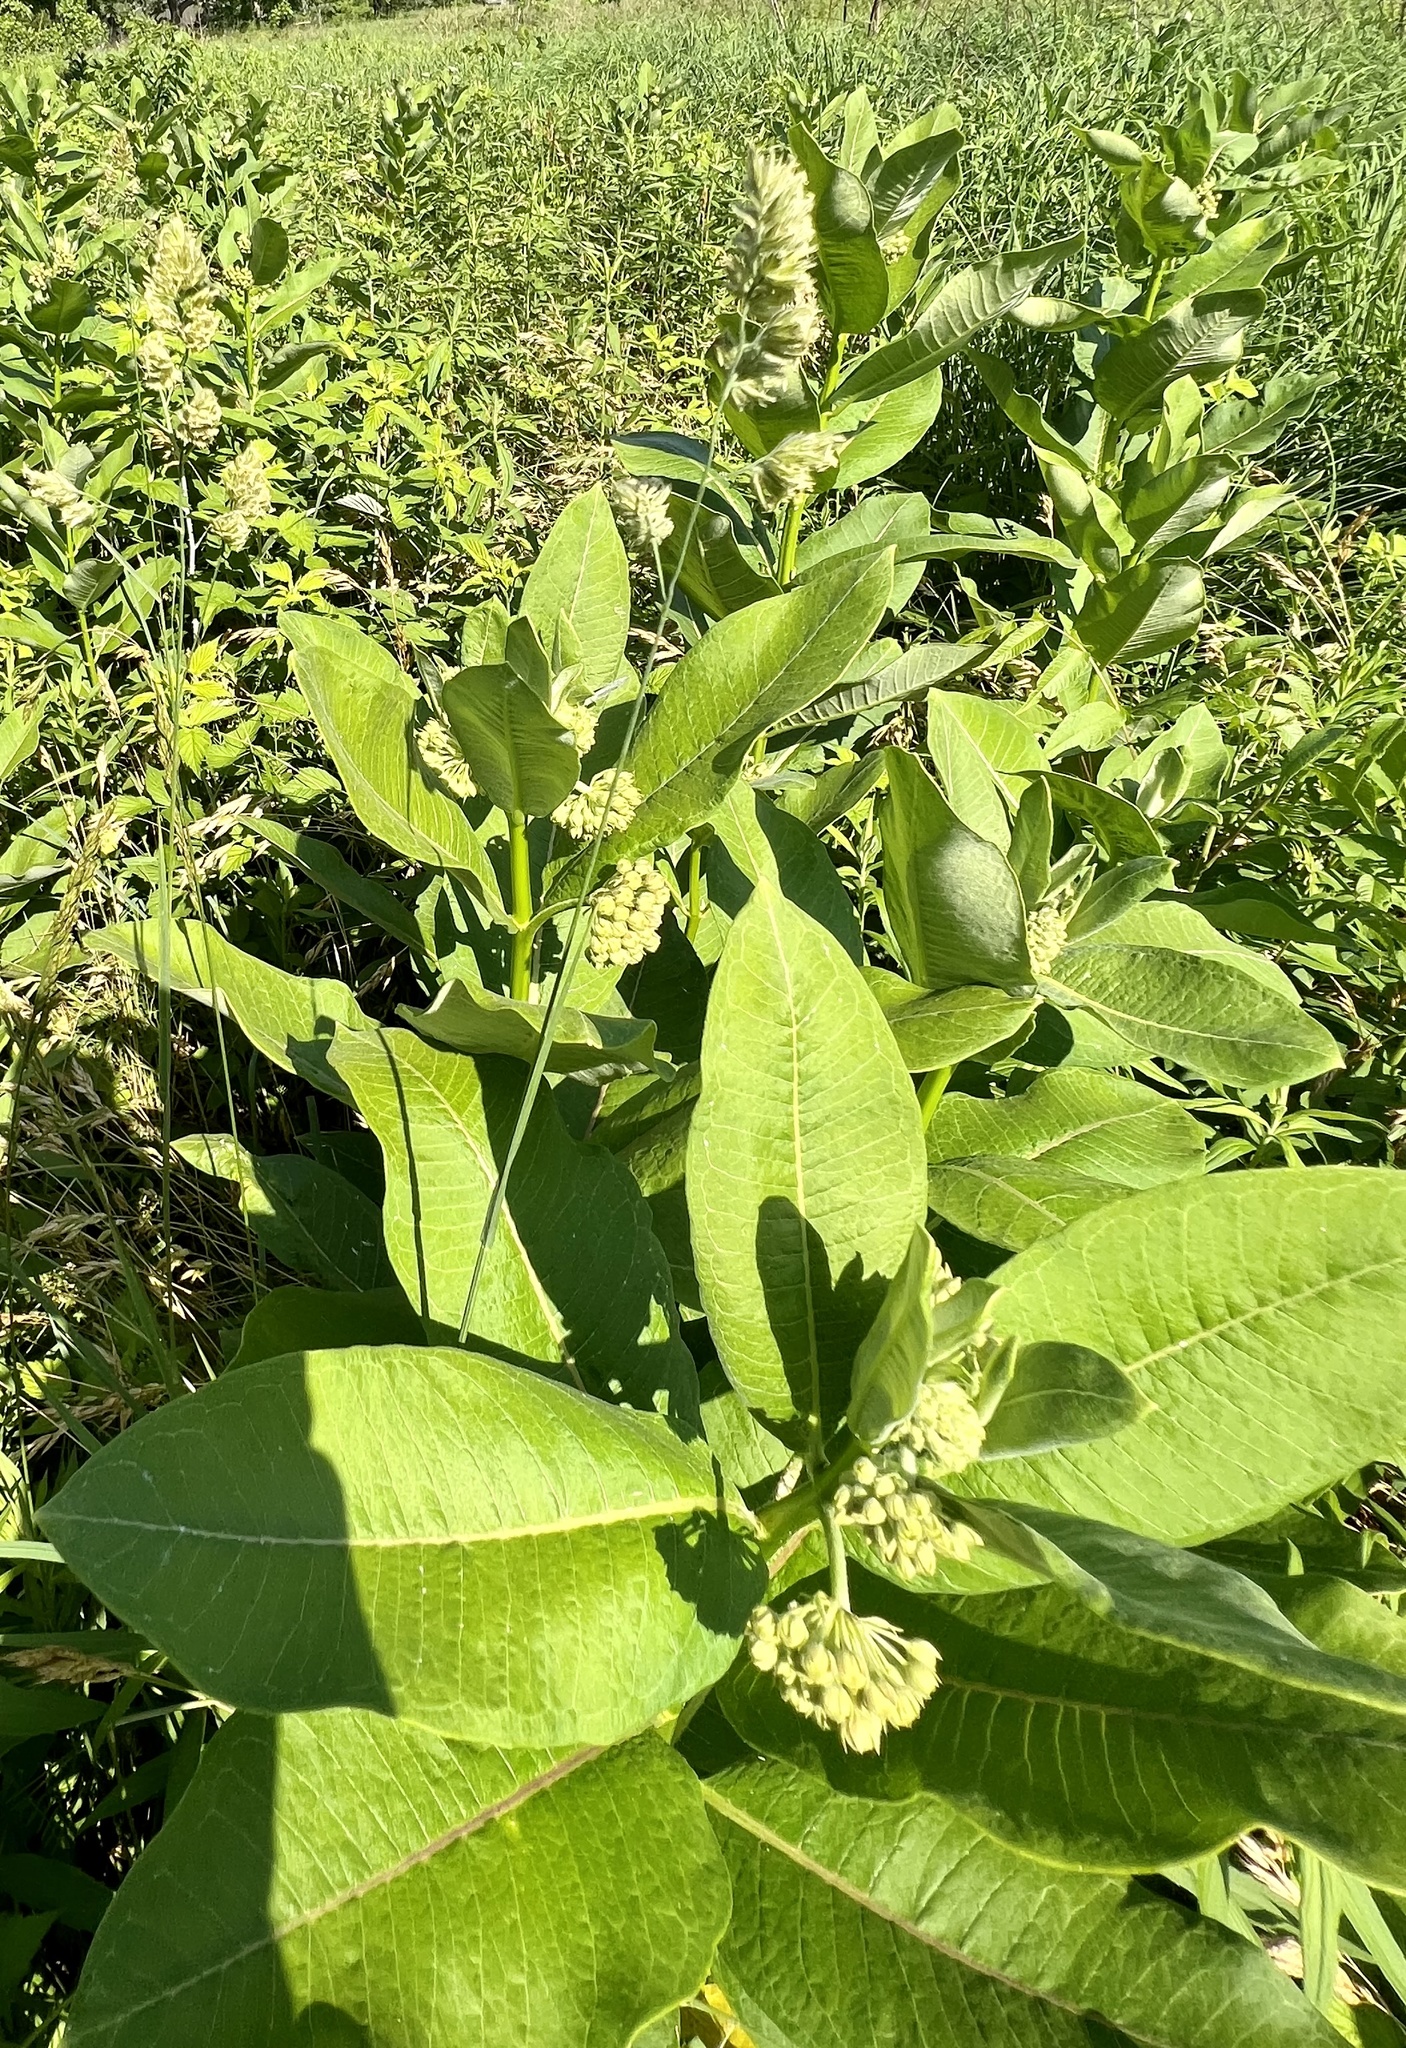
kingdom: Plantae
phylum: Tracheophyta
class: Magnoliopsida
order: Gentianales
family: Apocynaceae
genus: Asclepias
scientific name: Asclepias syriaca
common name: Common milkweed
